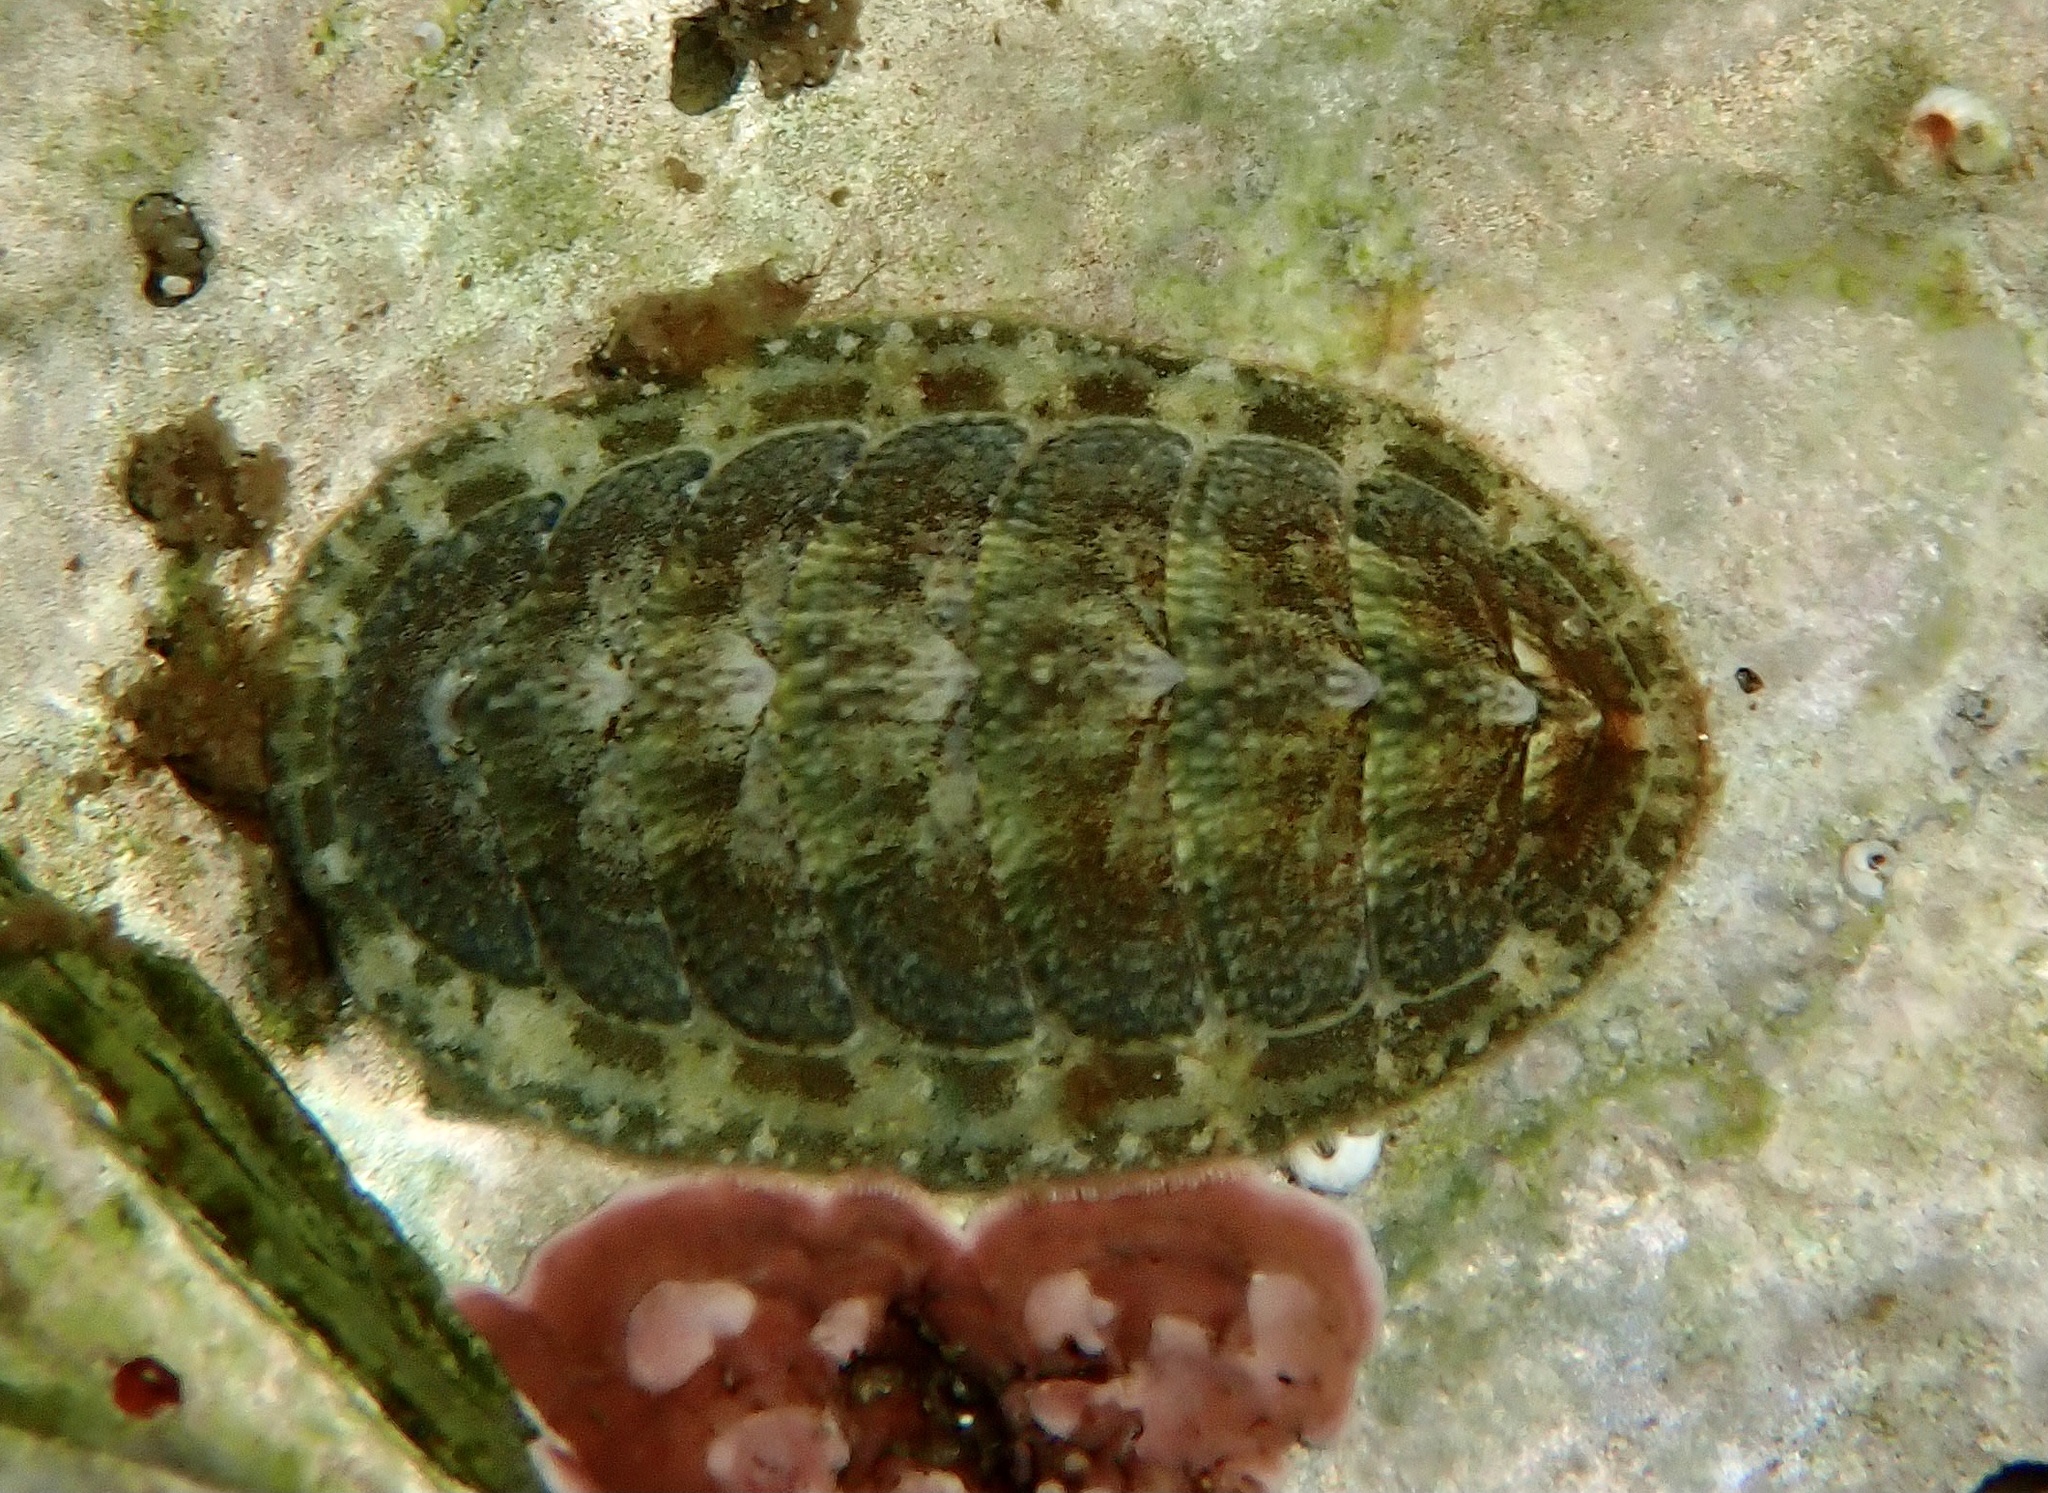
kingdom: Animalia
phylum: Mollusca
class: Polyplacophora
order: Chitonida
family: Tonicellidae
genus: Lepidochitona
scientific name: Lepidochitona cinerea
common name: Cinereous chiton
